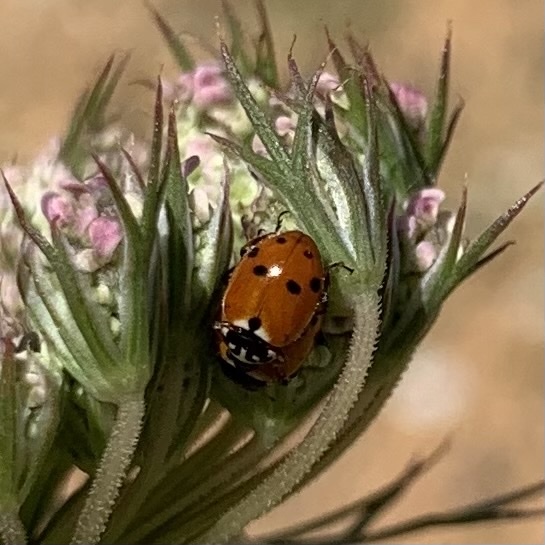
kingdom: Animalia
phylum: Arthropoda
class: Insecta
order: Coleoptera
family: Coccinellidae
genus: Hippodamia
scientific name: Hippodamia variegata
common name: Ladybird beetle
